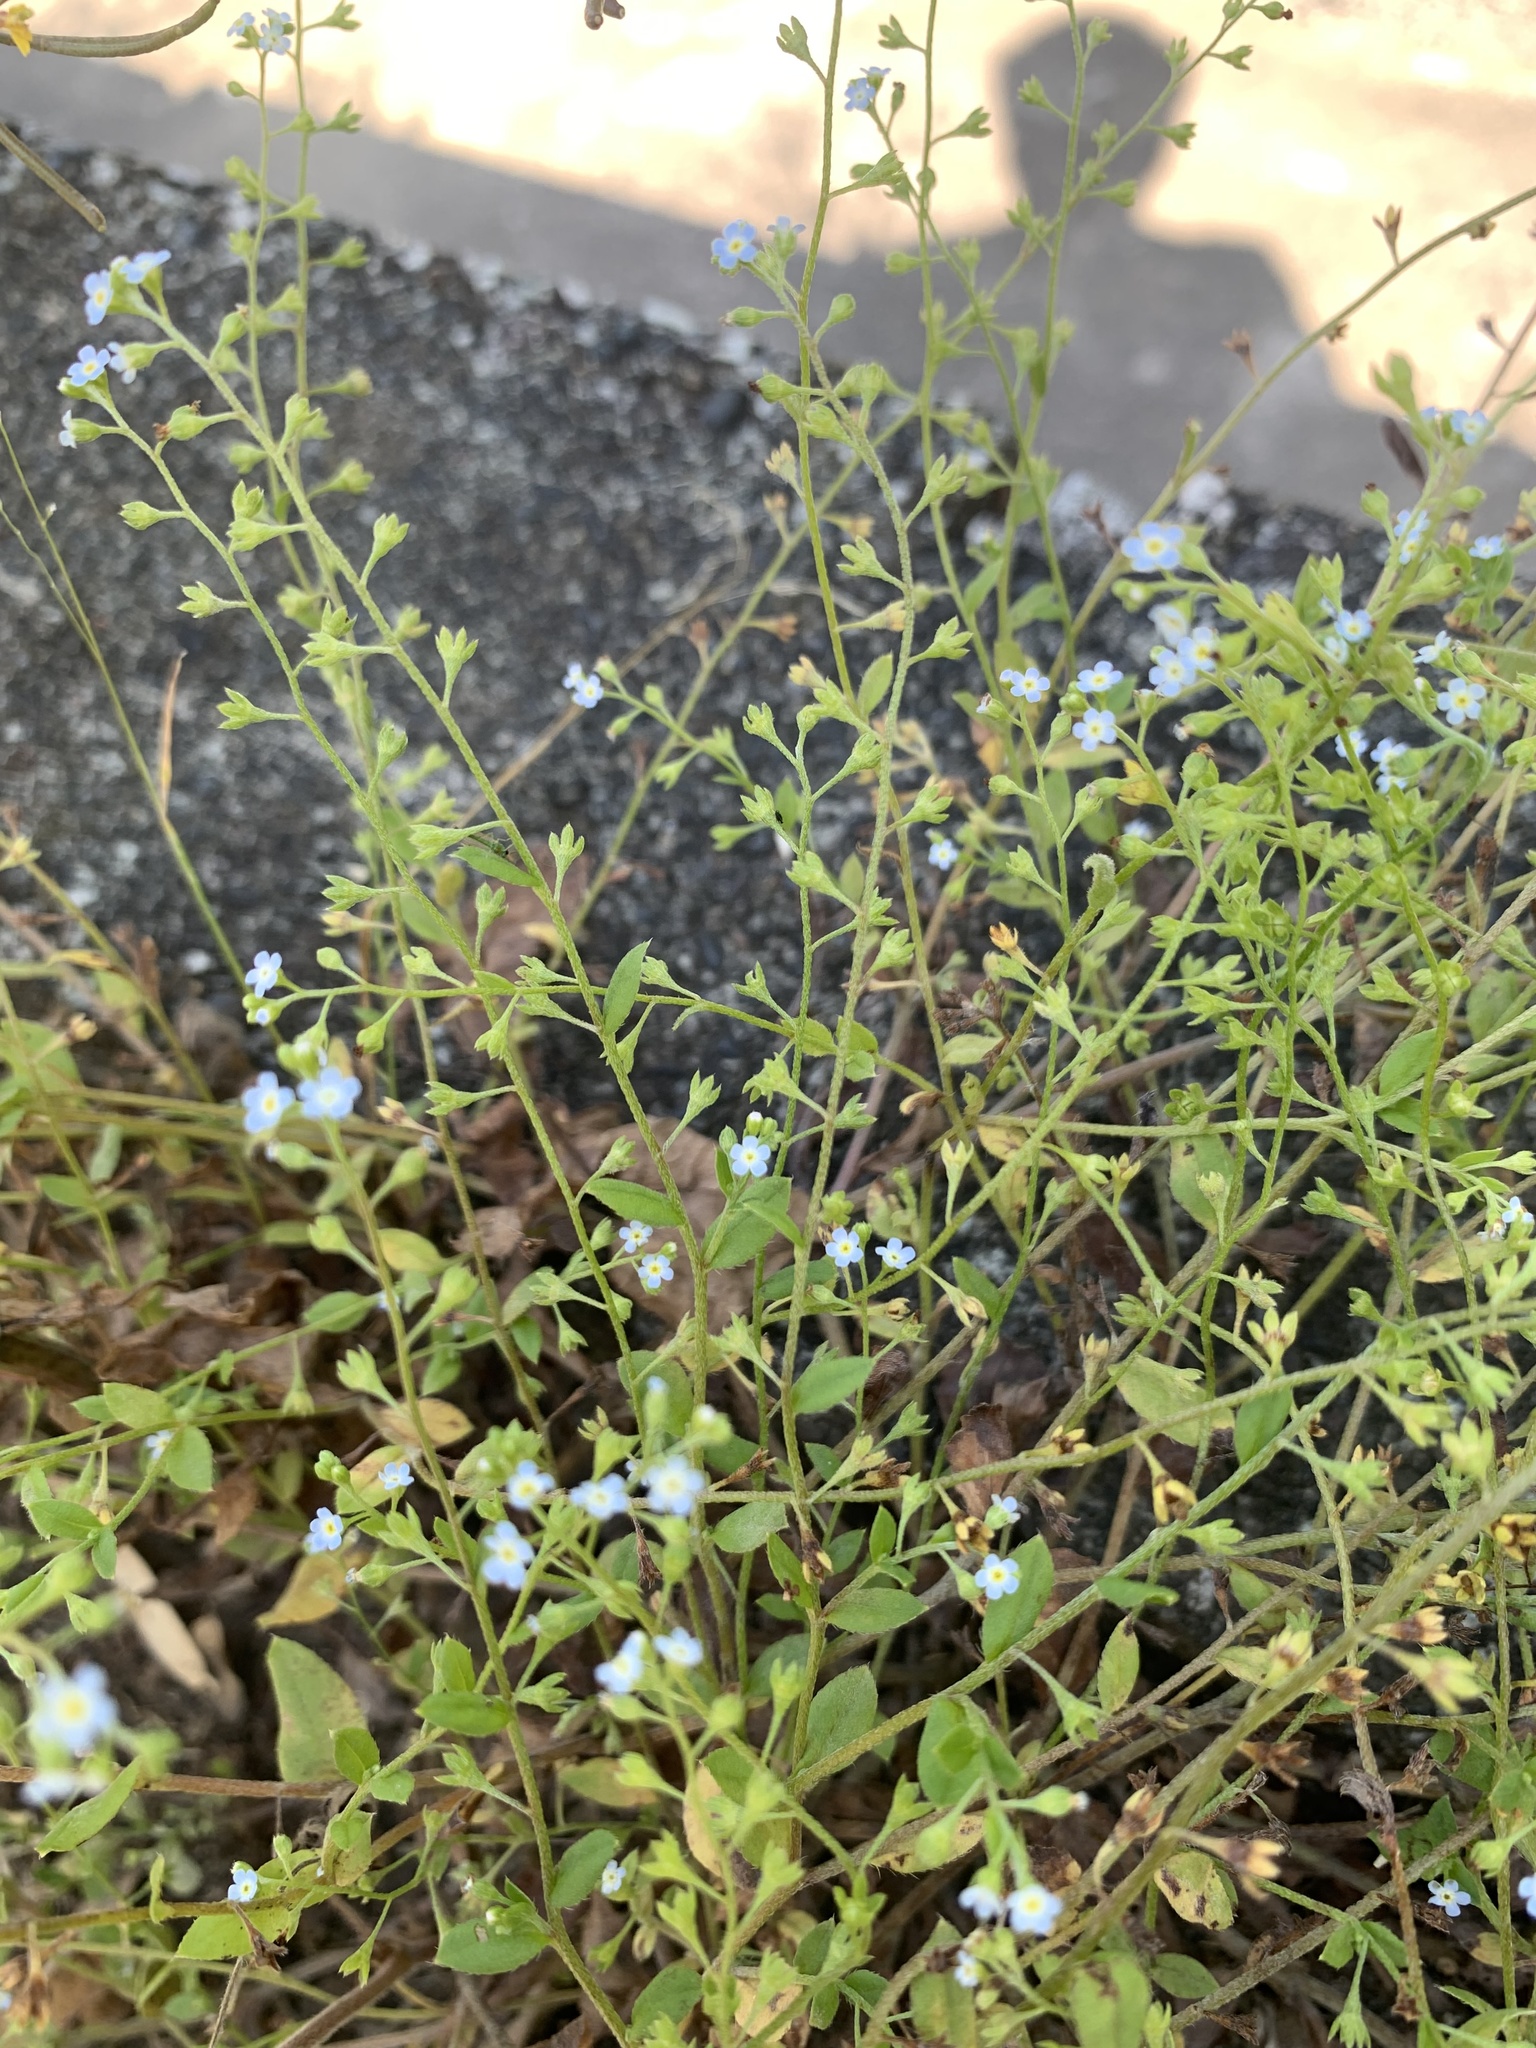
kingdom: Plantae
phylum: Tracheophyta
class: Magnoliopsida
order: Boraginales
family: Boraginaceae
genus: Trigonotis
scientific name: Trigonotis peduncularis
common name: Cucumber herb
